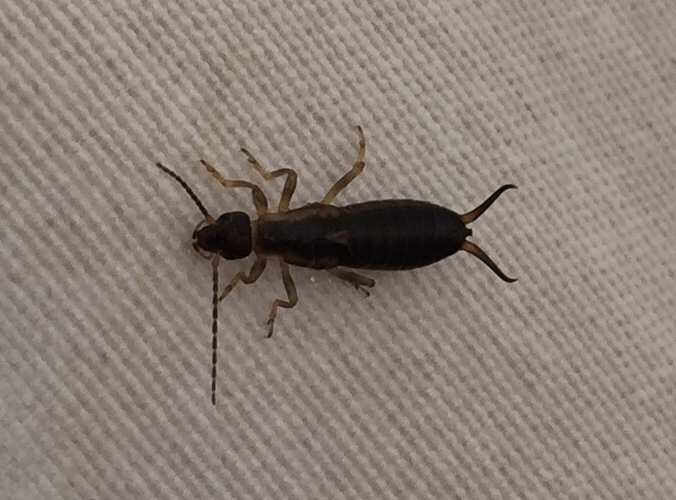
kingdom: Animalia
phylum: Arthropoda
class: Insecta
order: Dermaptera
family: Forficulidae
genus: Forficula
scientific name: Forficula
